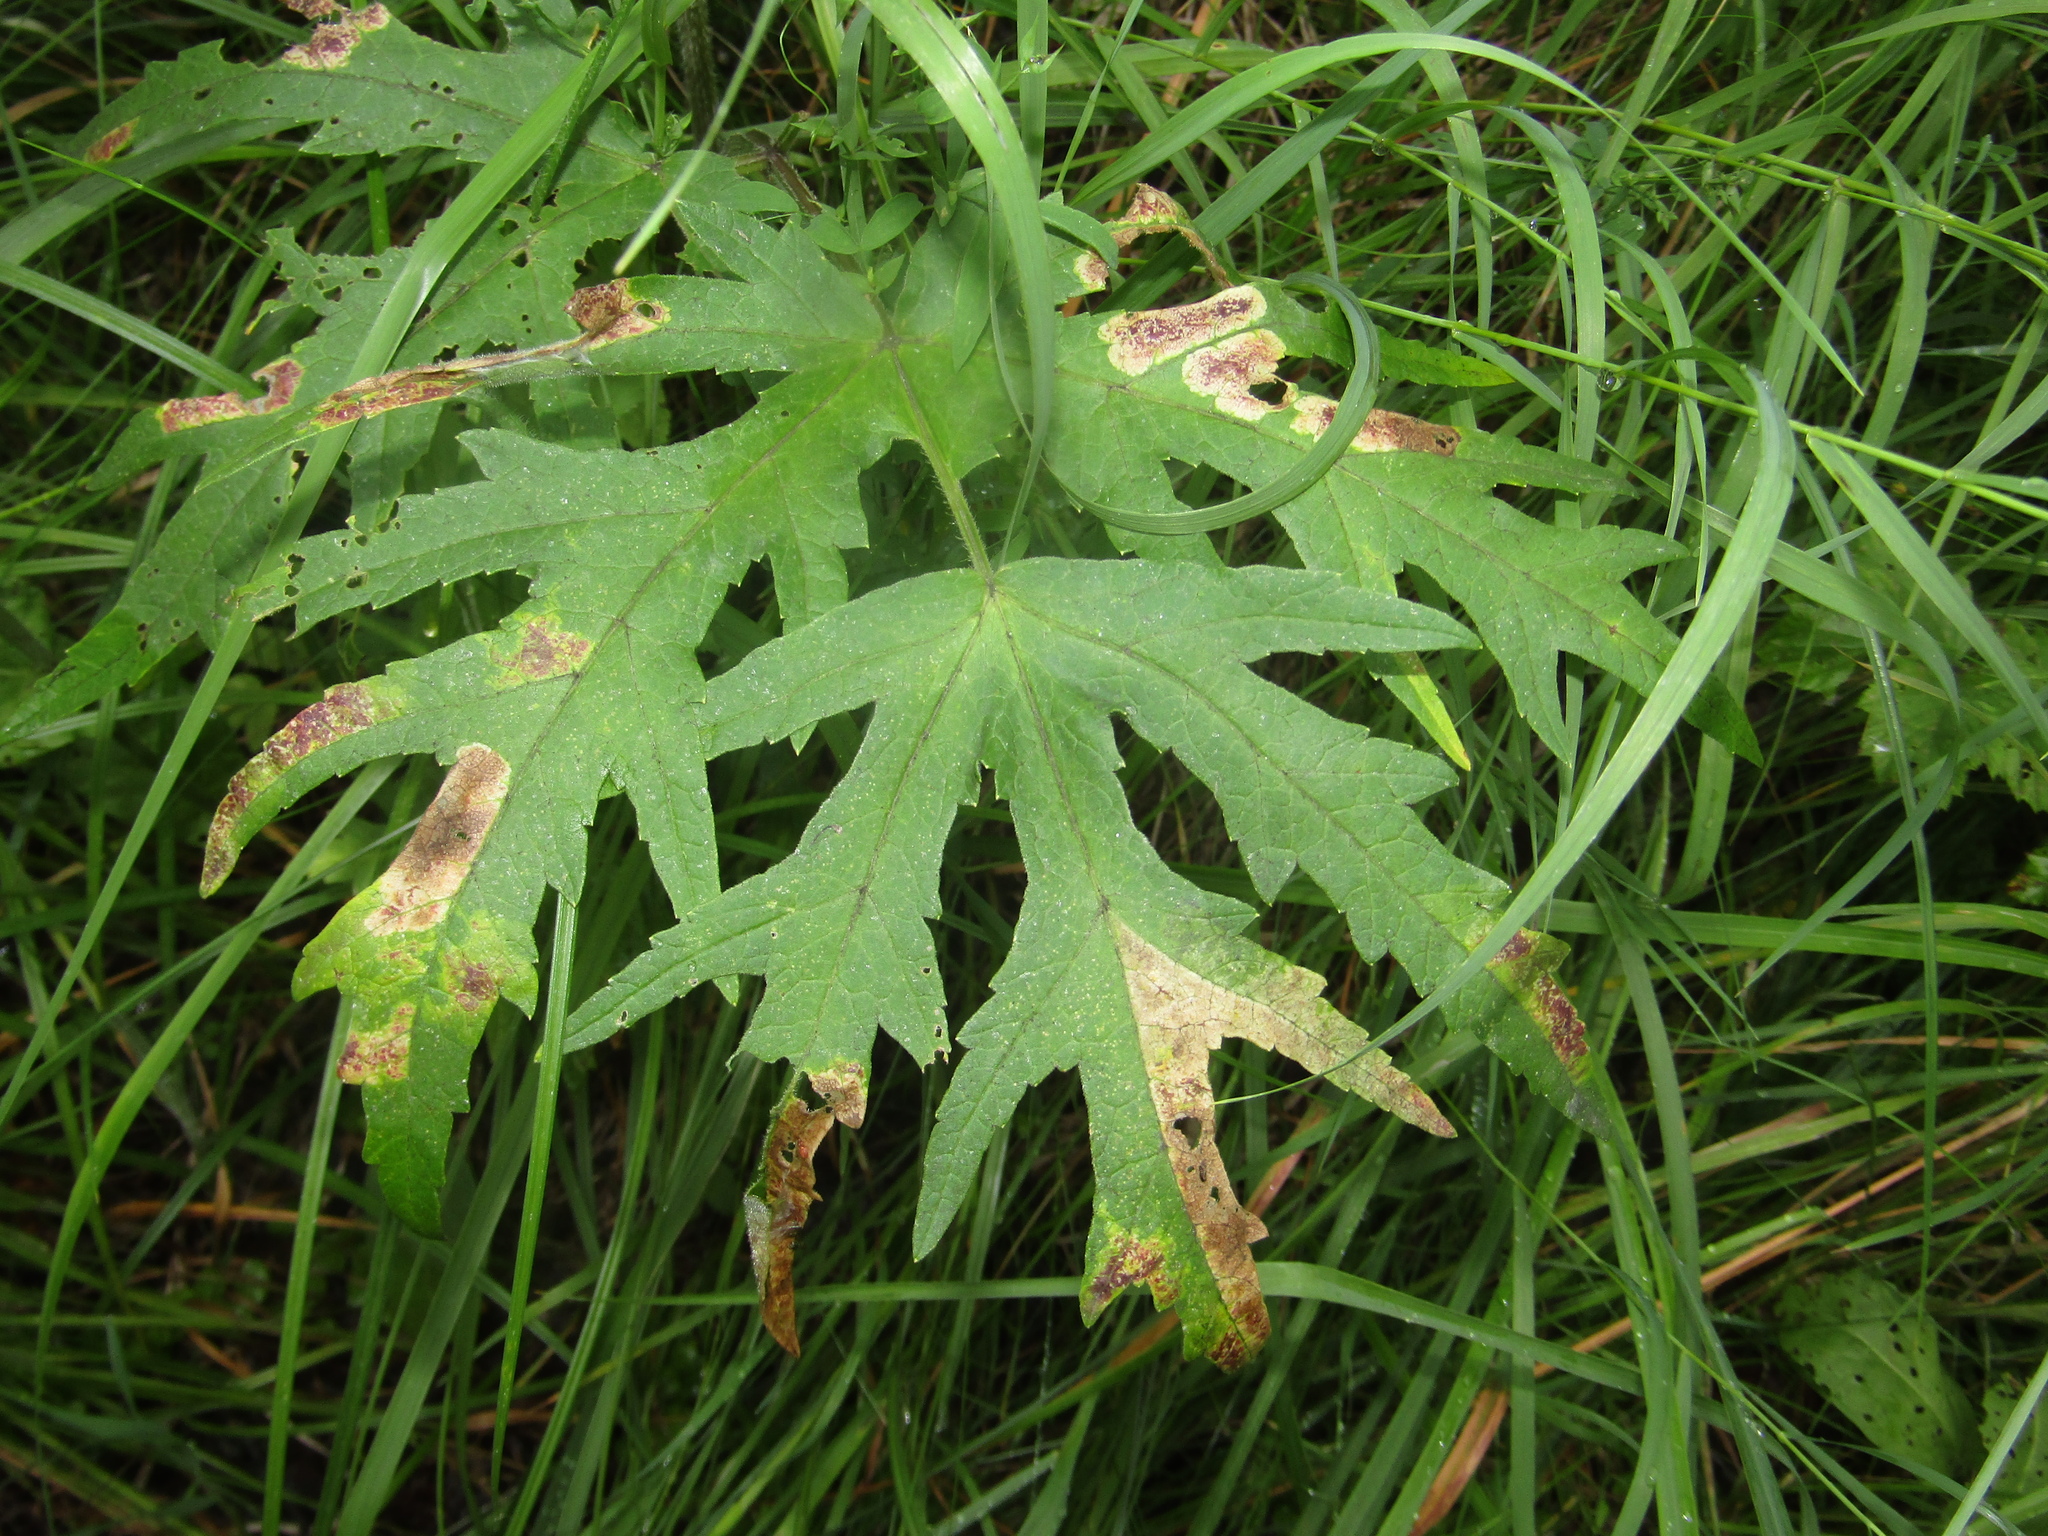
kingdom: Plantae
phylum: Tracheophyta
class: Magnoliopsida
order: Apiales
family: Apiaceae
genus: Heracleum
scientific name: Heracleum sphondylium
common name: Hogweed
